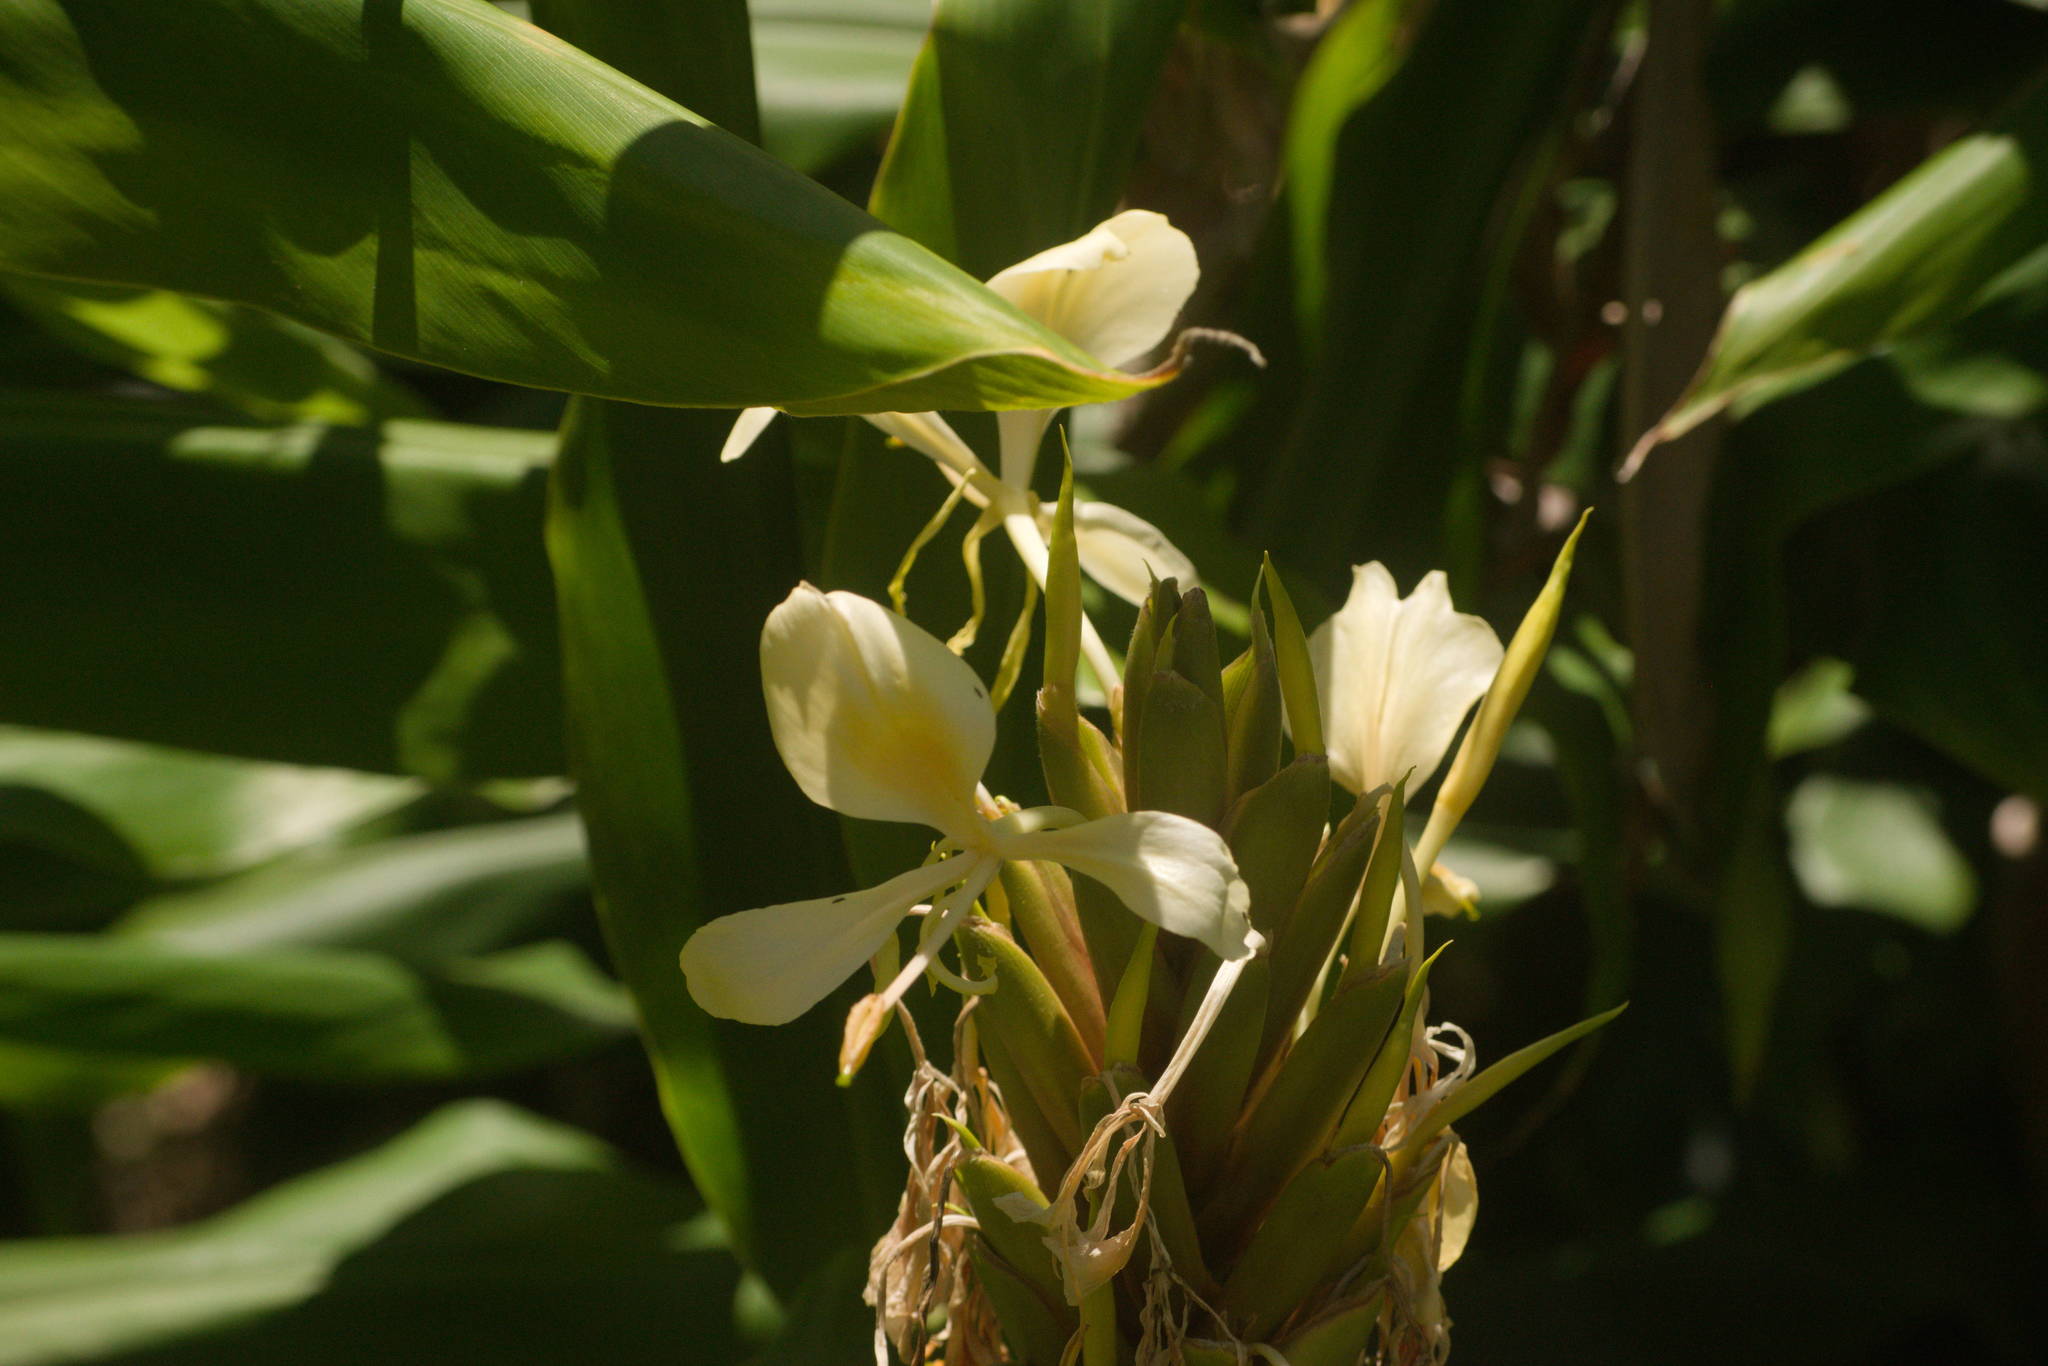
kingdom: Plantae
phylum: Tracheophyta
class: Liliopsida
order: Zingiberales
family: Zingiberaceae
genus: Hedychium
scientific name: Hedychium flavescens
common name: Yellow ginger
